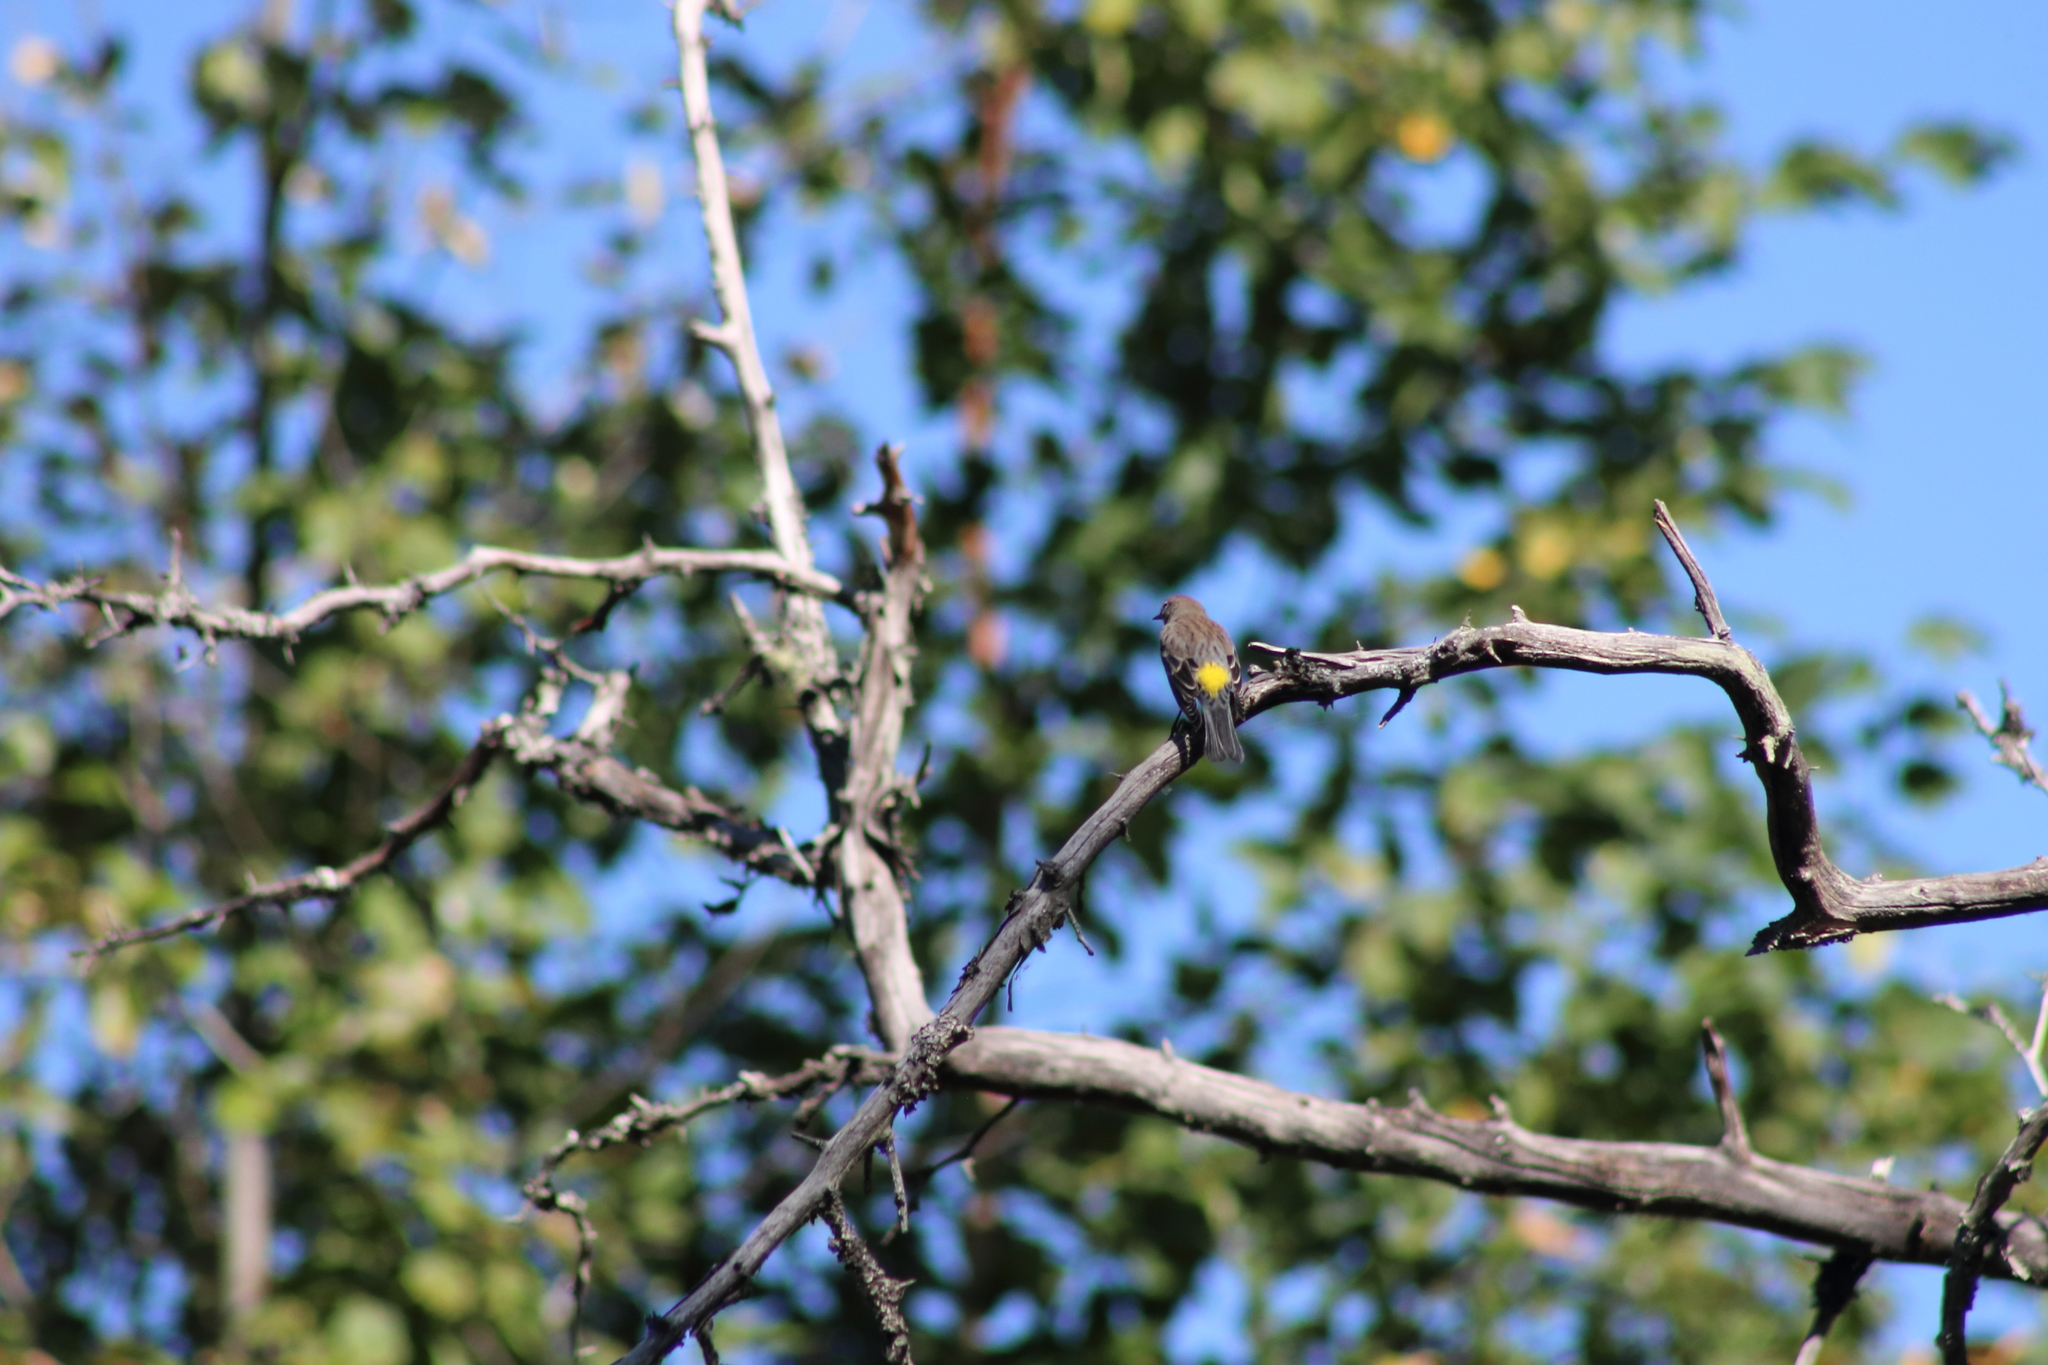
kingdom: Animalia
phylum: Chordata
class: Aves
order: Passeriformes
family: Parulidae
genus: Setophaga
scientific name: Setophaga coronata
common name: Myrtle warbler
